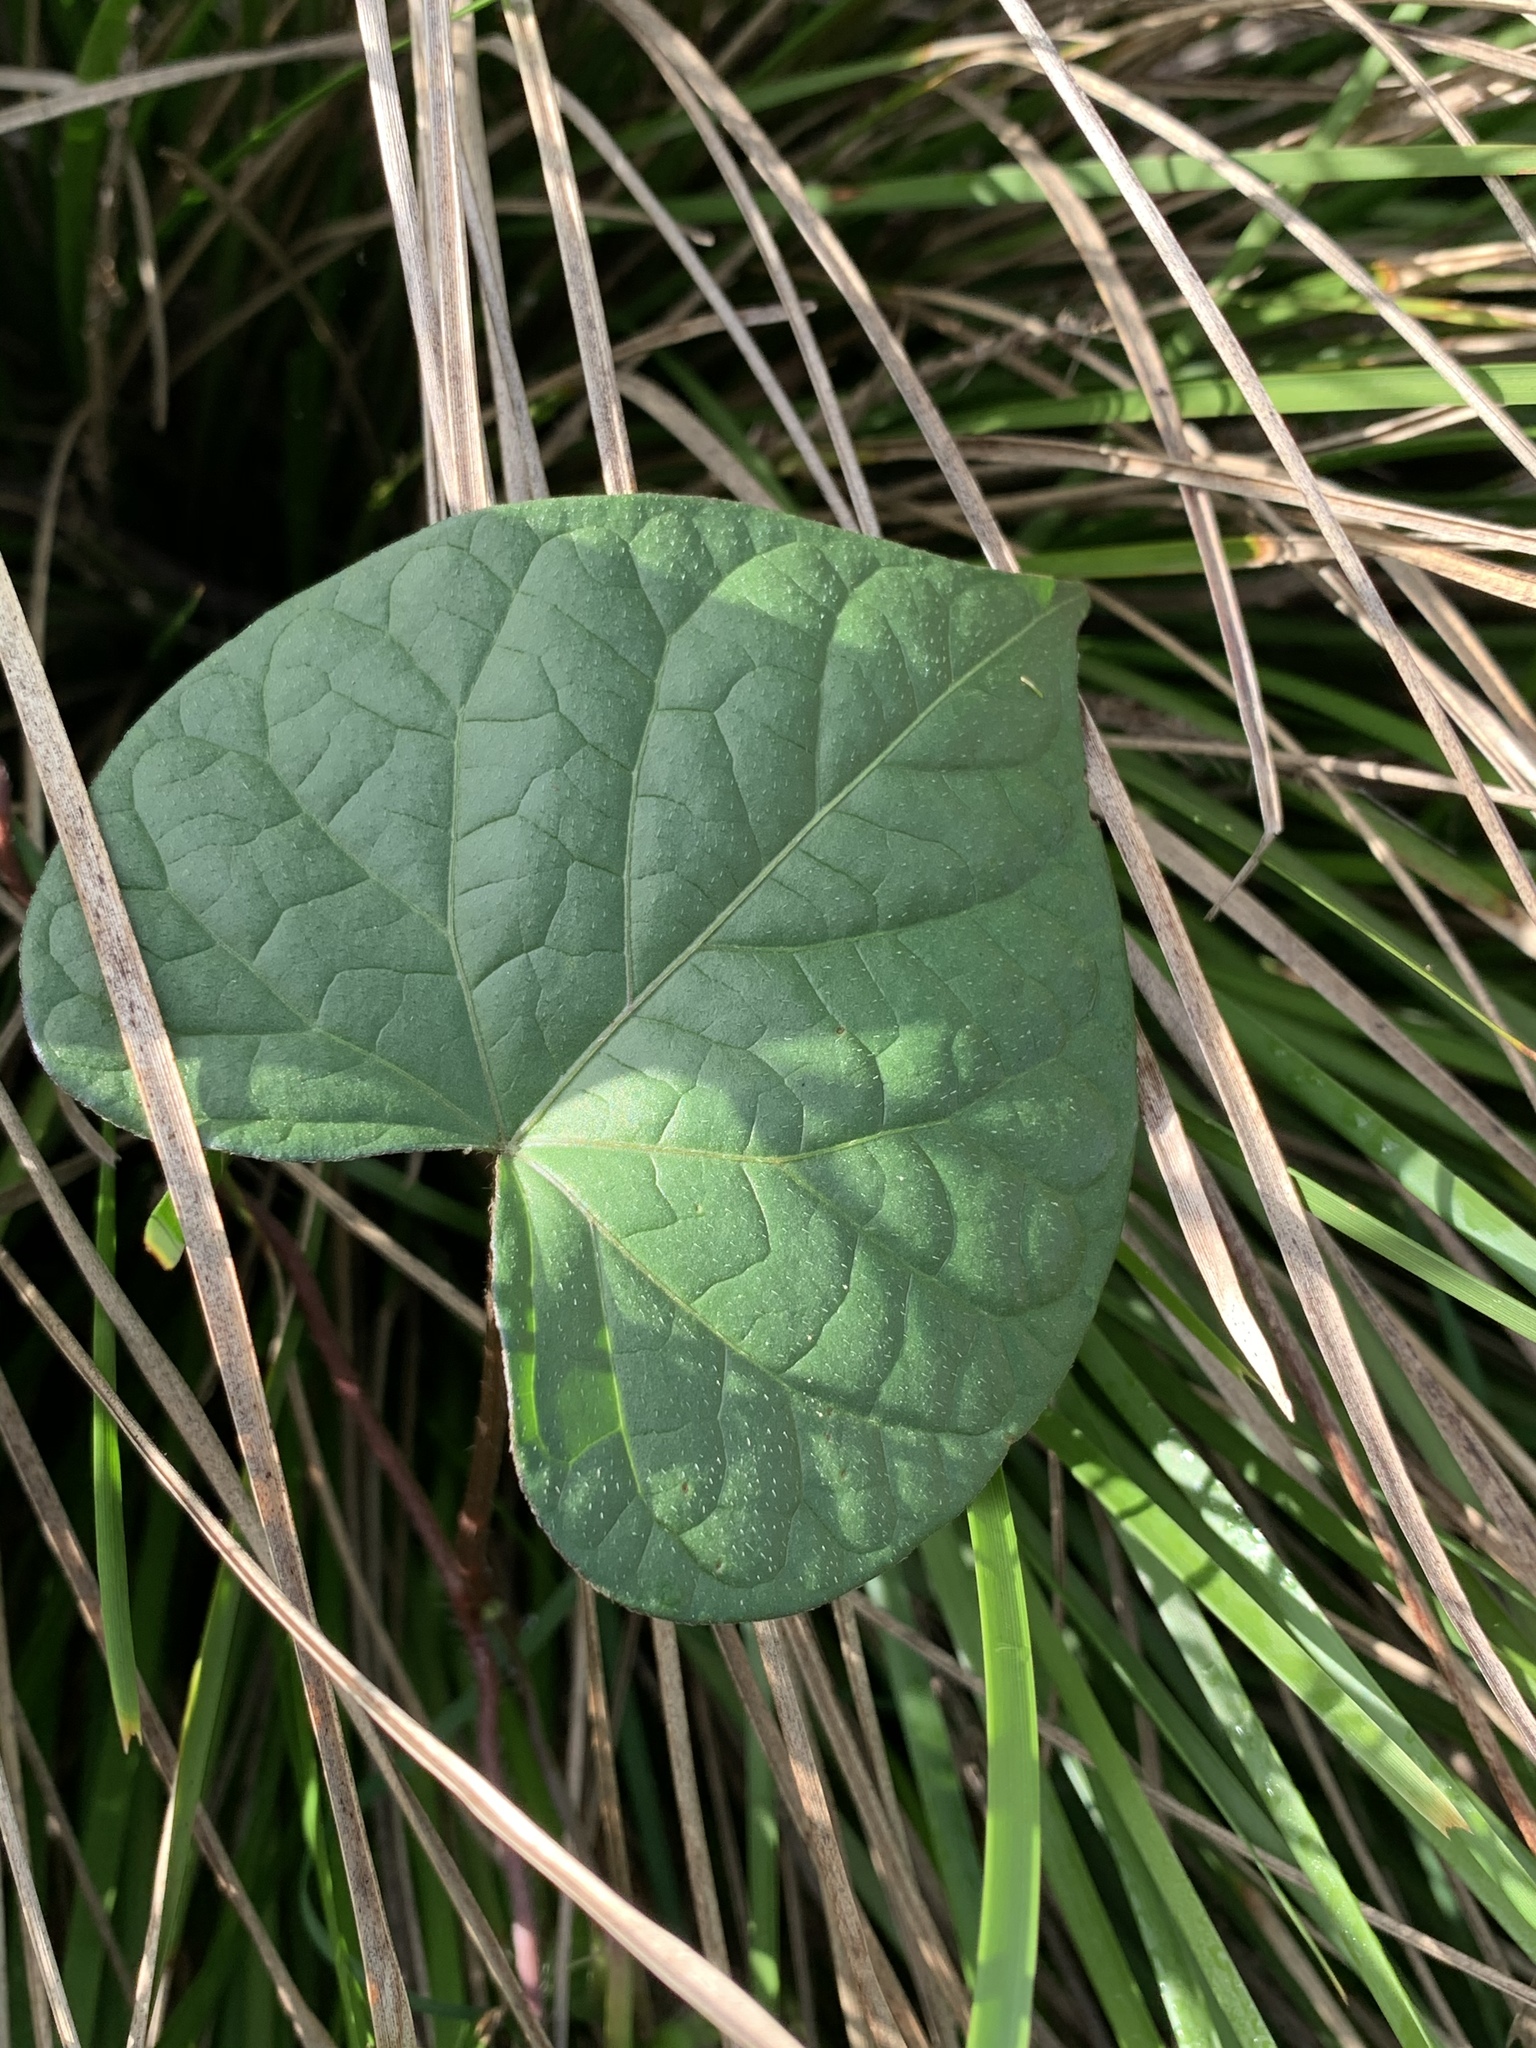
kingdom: Plantae
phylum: Tracheophyta
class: Magnoliopsida
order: Solanales
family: Convolvulaceae
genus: Ipomoea
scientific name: Ipomoea purpurea
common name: Common morning-glory
